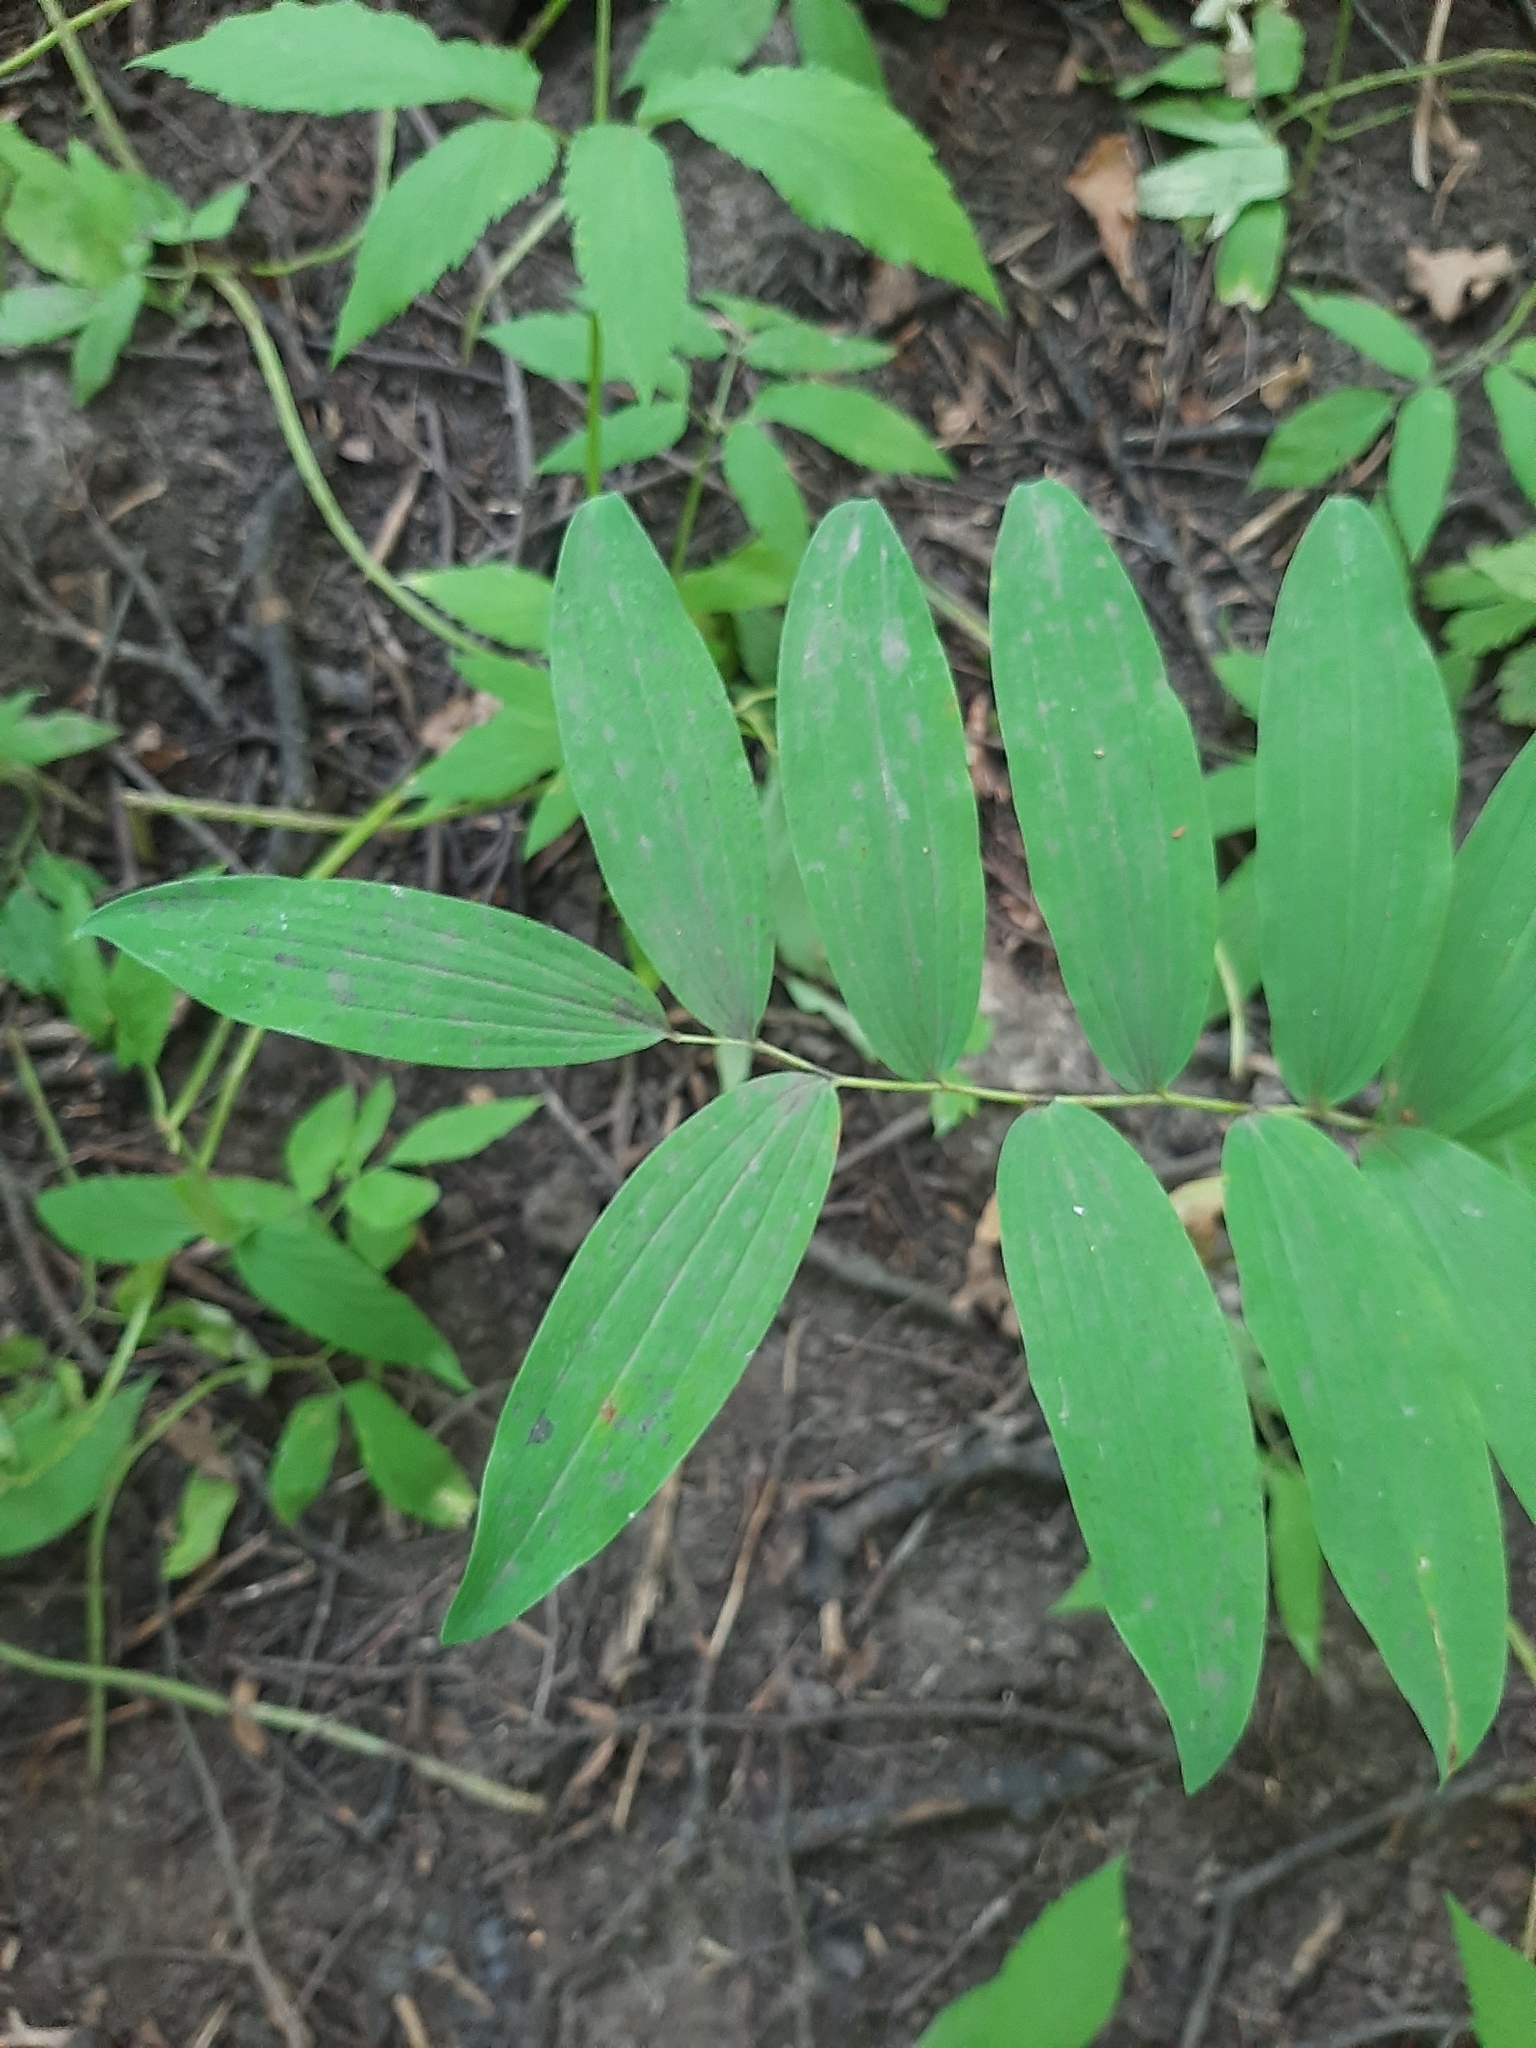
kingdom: Plantae
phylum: Tracheophyta
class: Liliopsida
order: Asparagales
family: Asparagaceae
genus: Polygonatum
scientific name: Polygonatum multiflorum
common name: Solomon's-seal
